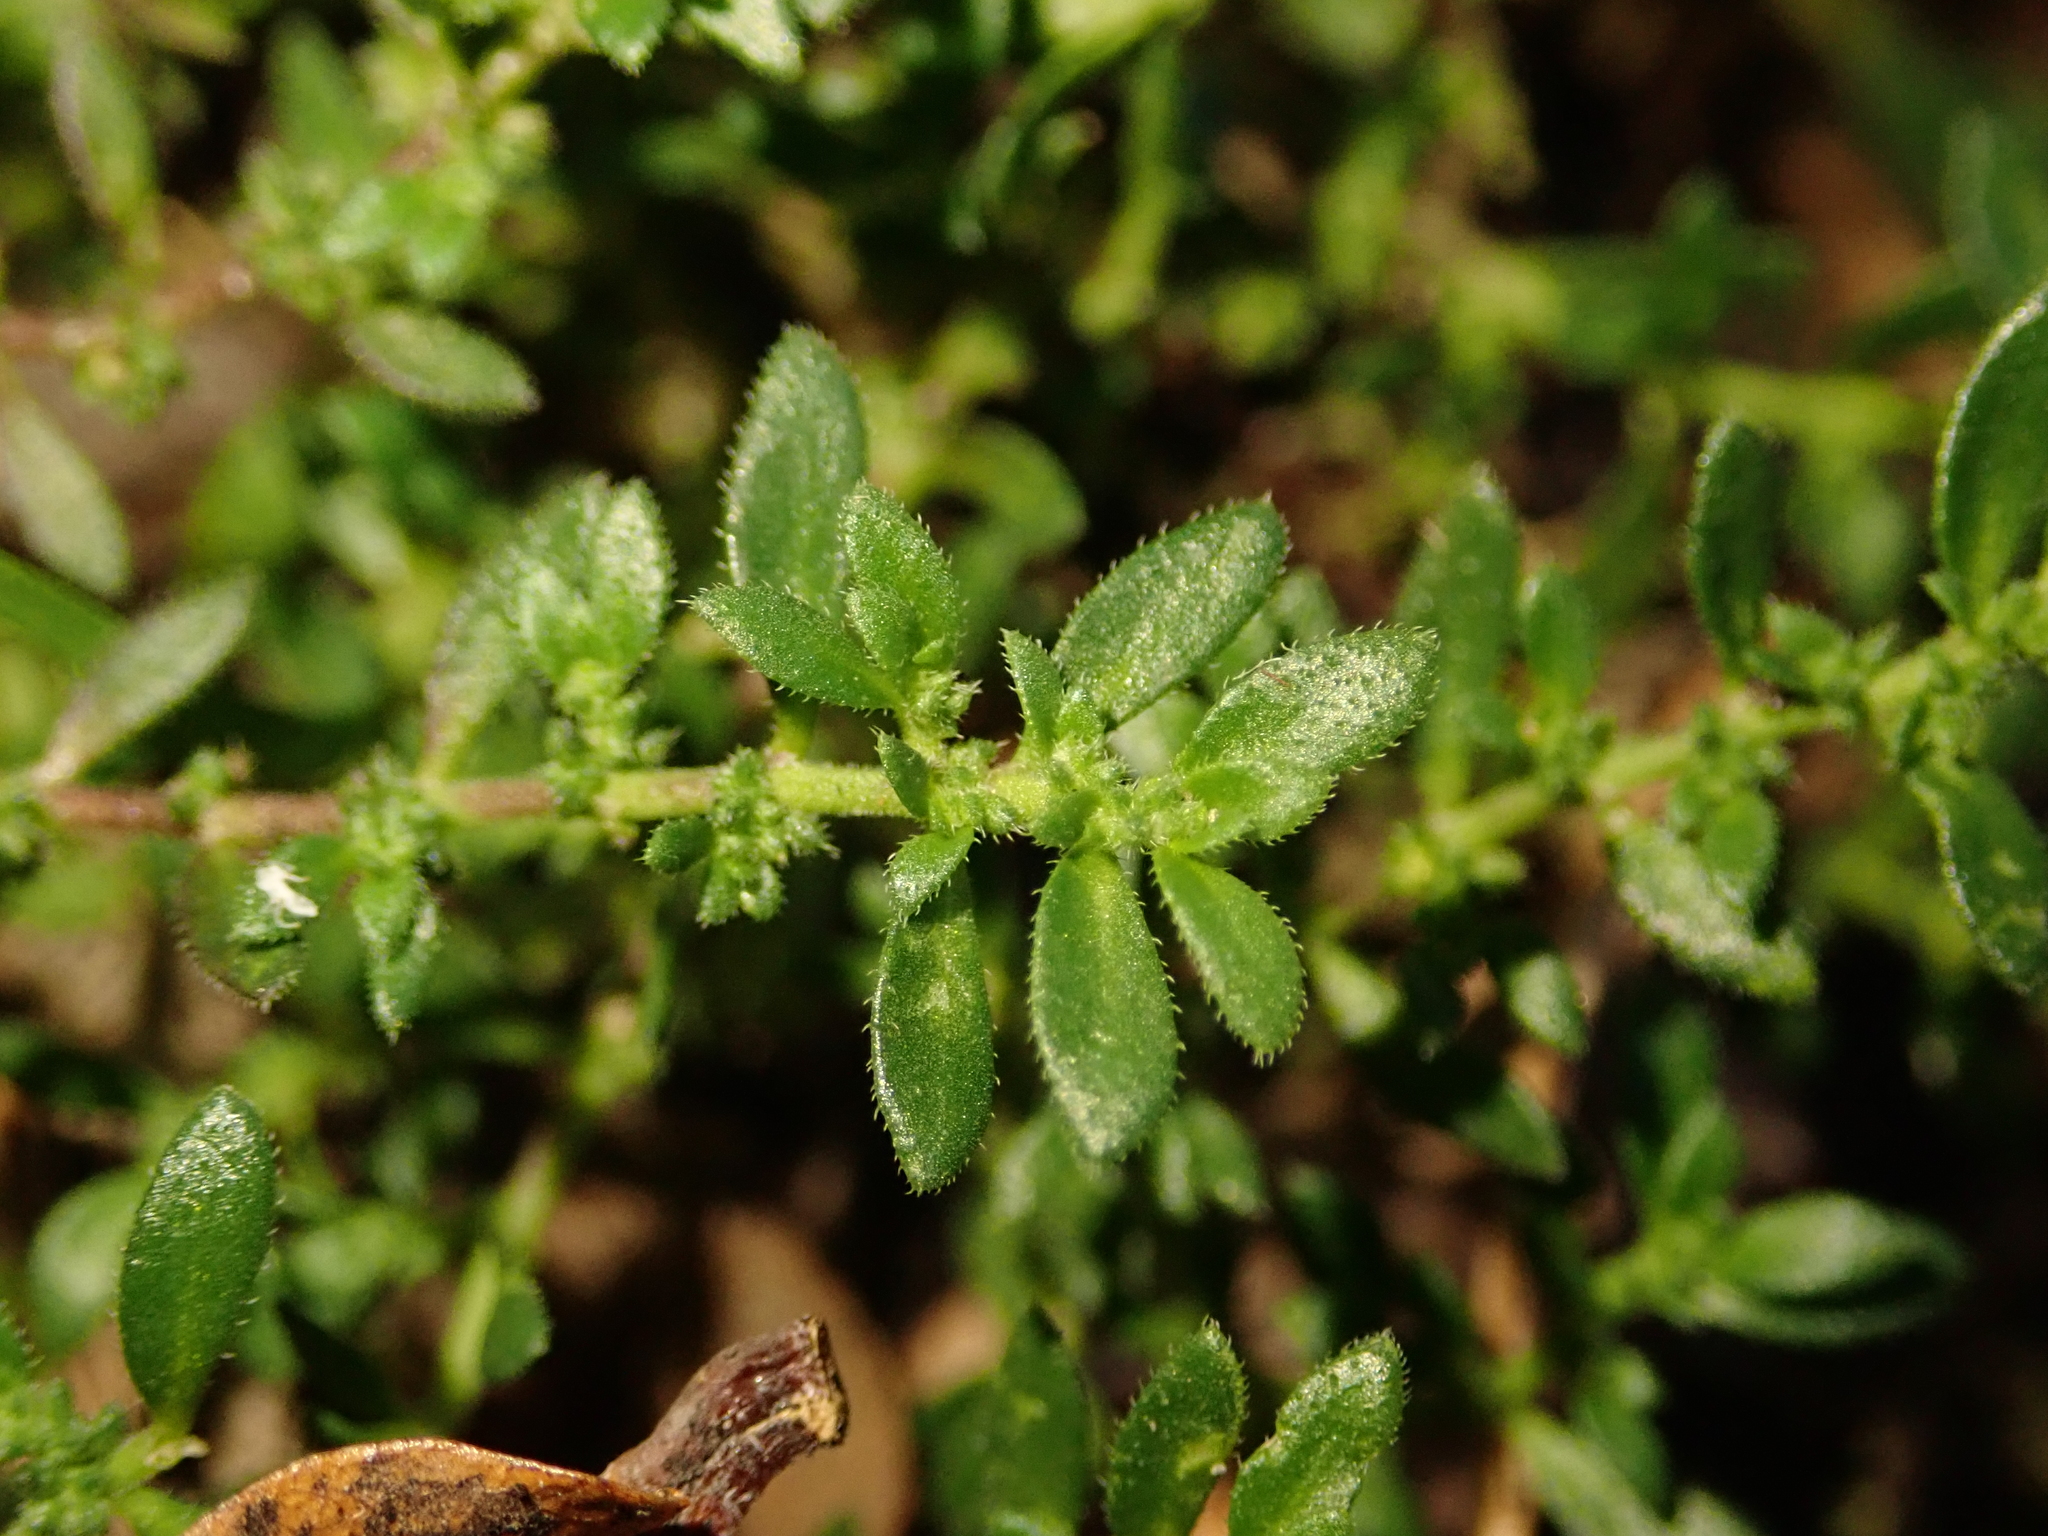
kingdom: Plantae
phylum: Tracheophyta
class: Magnoliopsida
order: Caryophyllales
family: Caryophyllaceae
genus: Herniaria
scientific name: Herniaria hirsuta
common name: Hairy rupturewort
